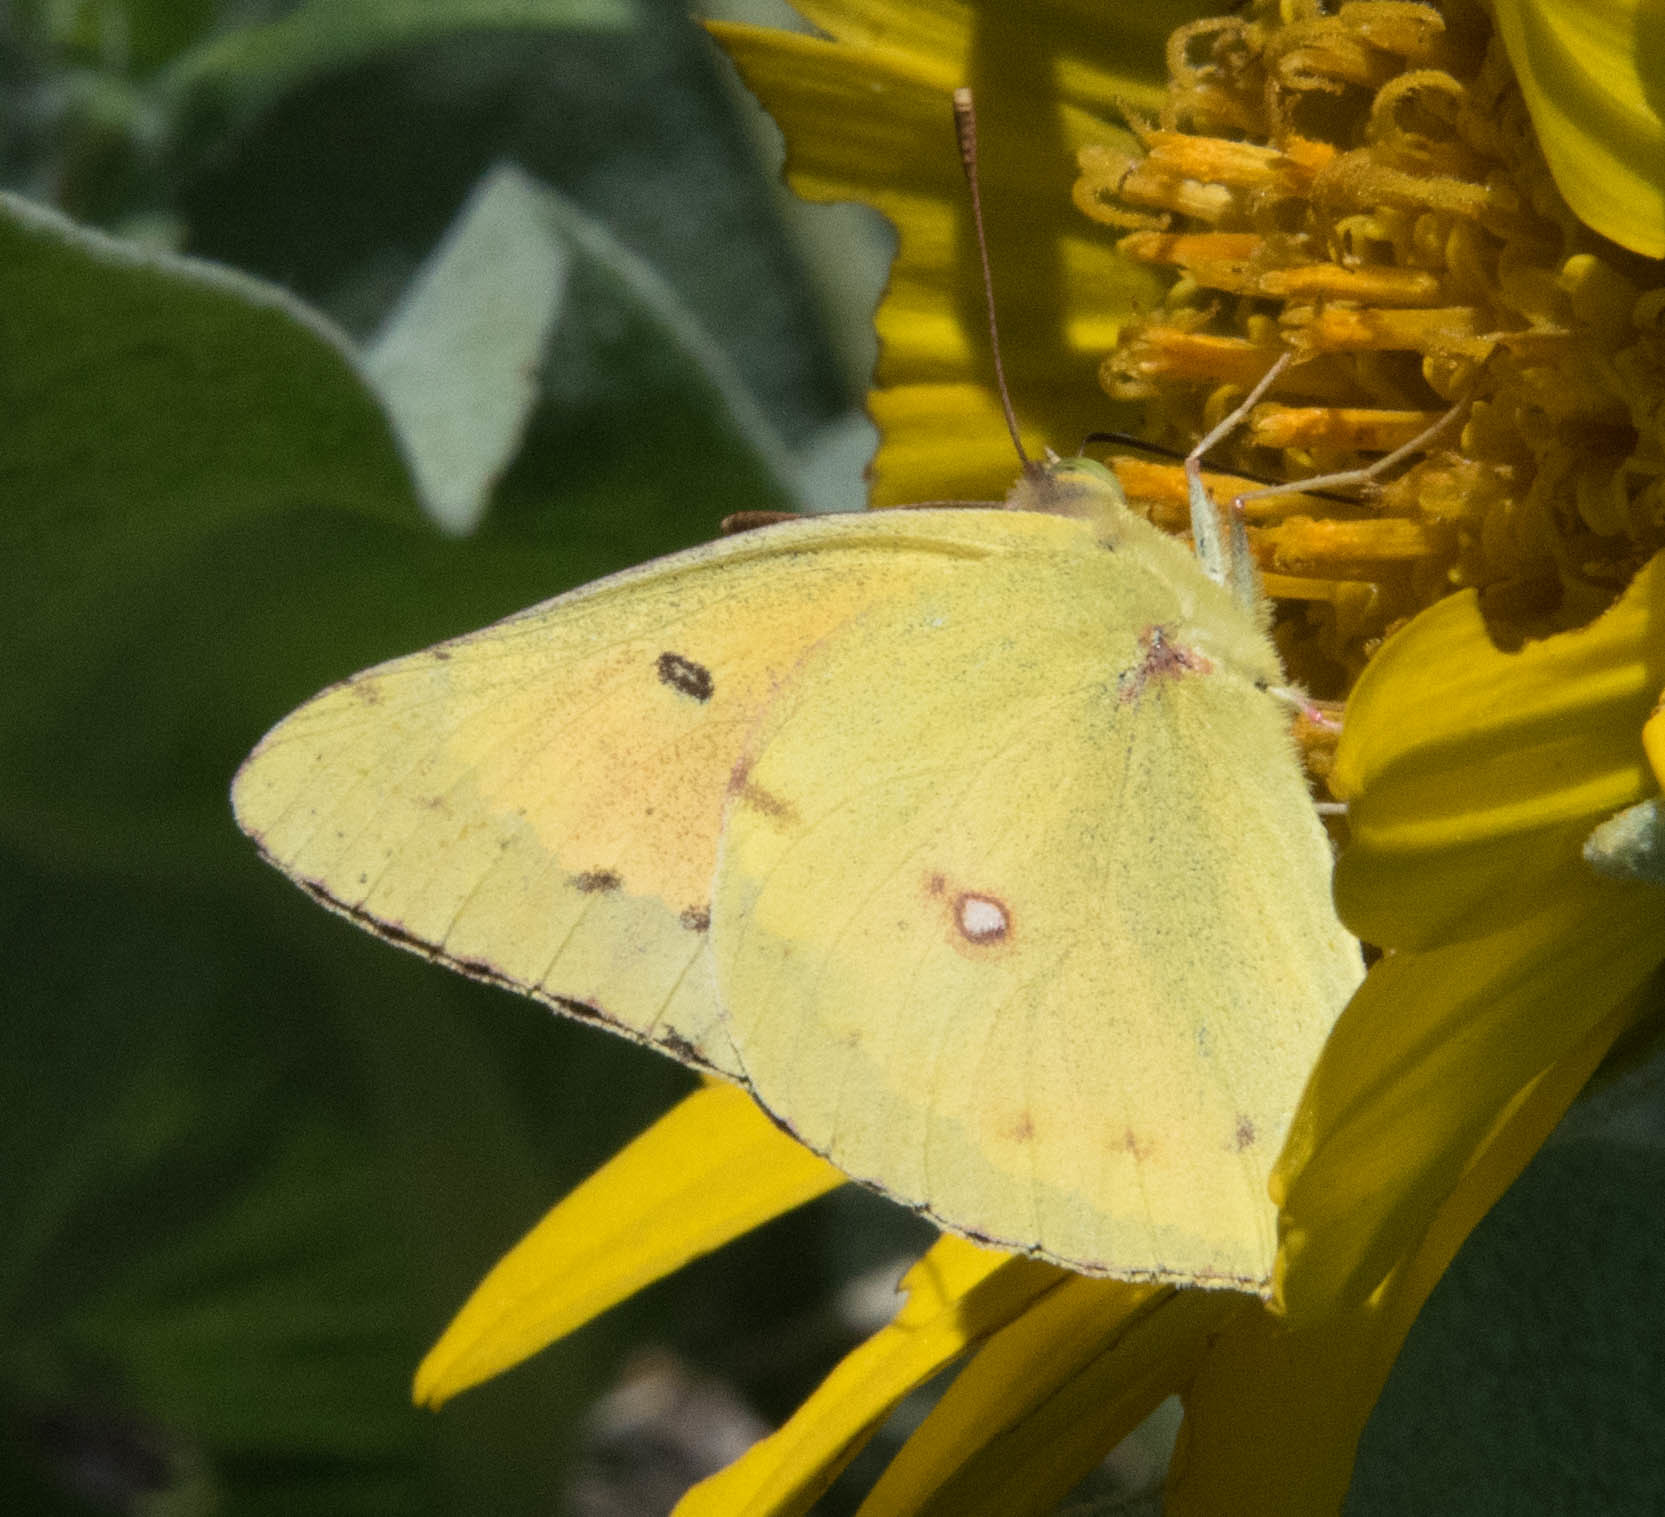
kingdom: Animalia
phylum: Arthropoda
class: Insecta
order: Lepidoptera
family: Pieridae
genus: Colias
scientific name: Colias eurytheme
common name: Alfalfa butterfly
